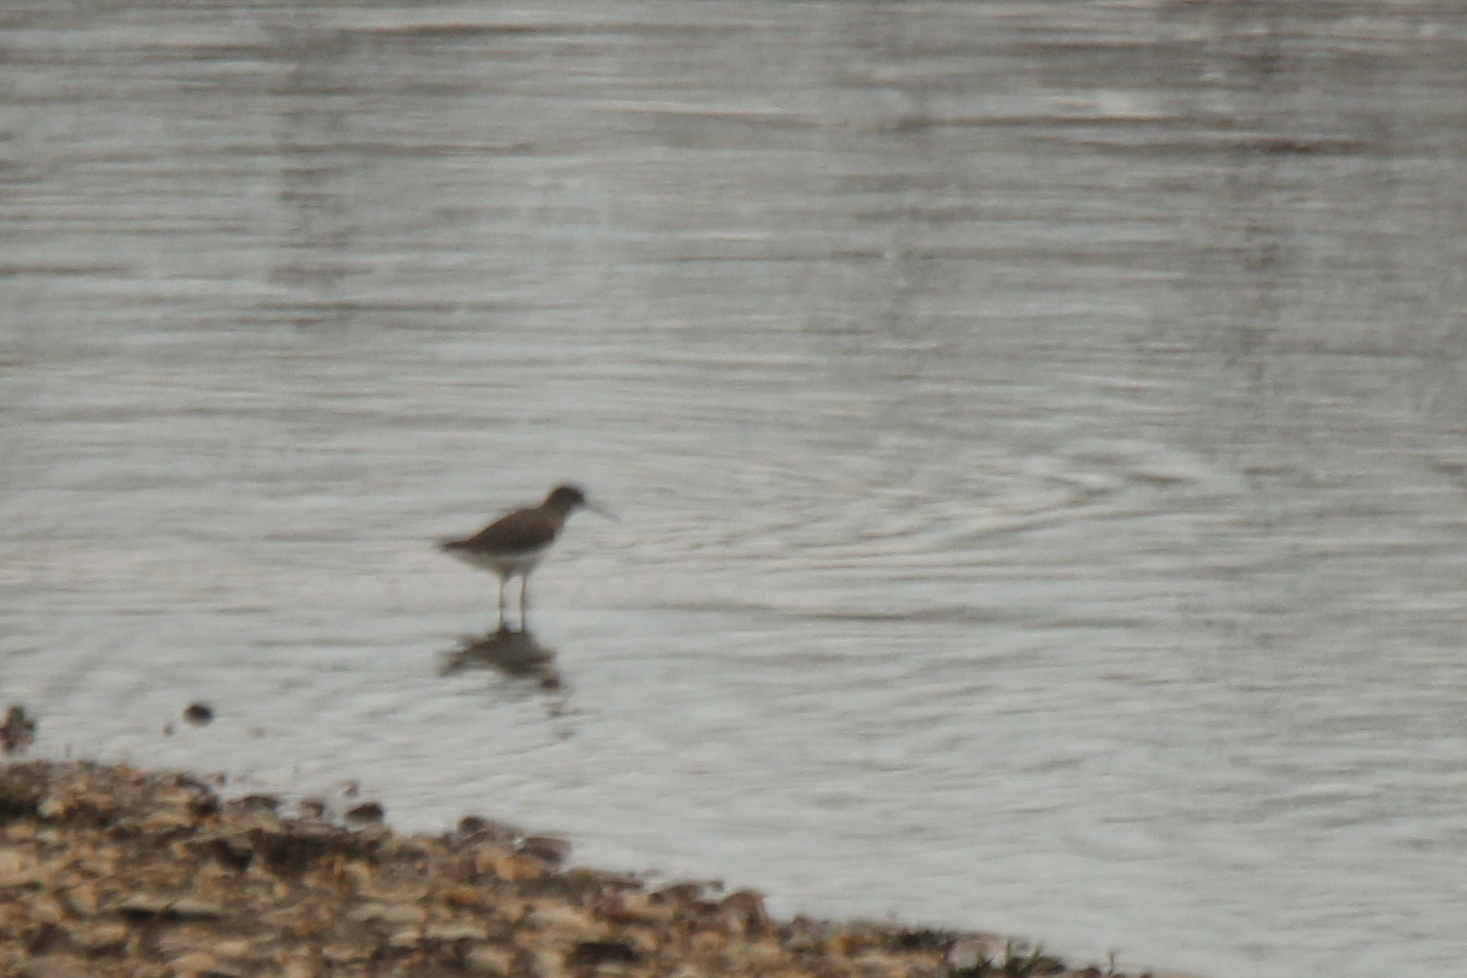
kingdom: Animalia
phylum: Chordata
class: Aves
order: Charadriiformes
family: Scolopacidae
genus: Tringa
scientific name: Tringa ochropus
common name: Green sandpiper
